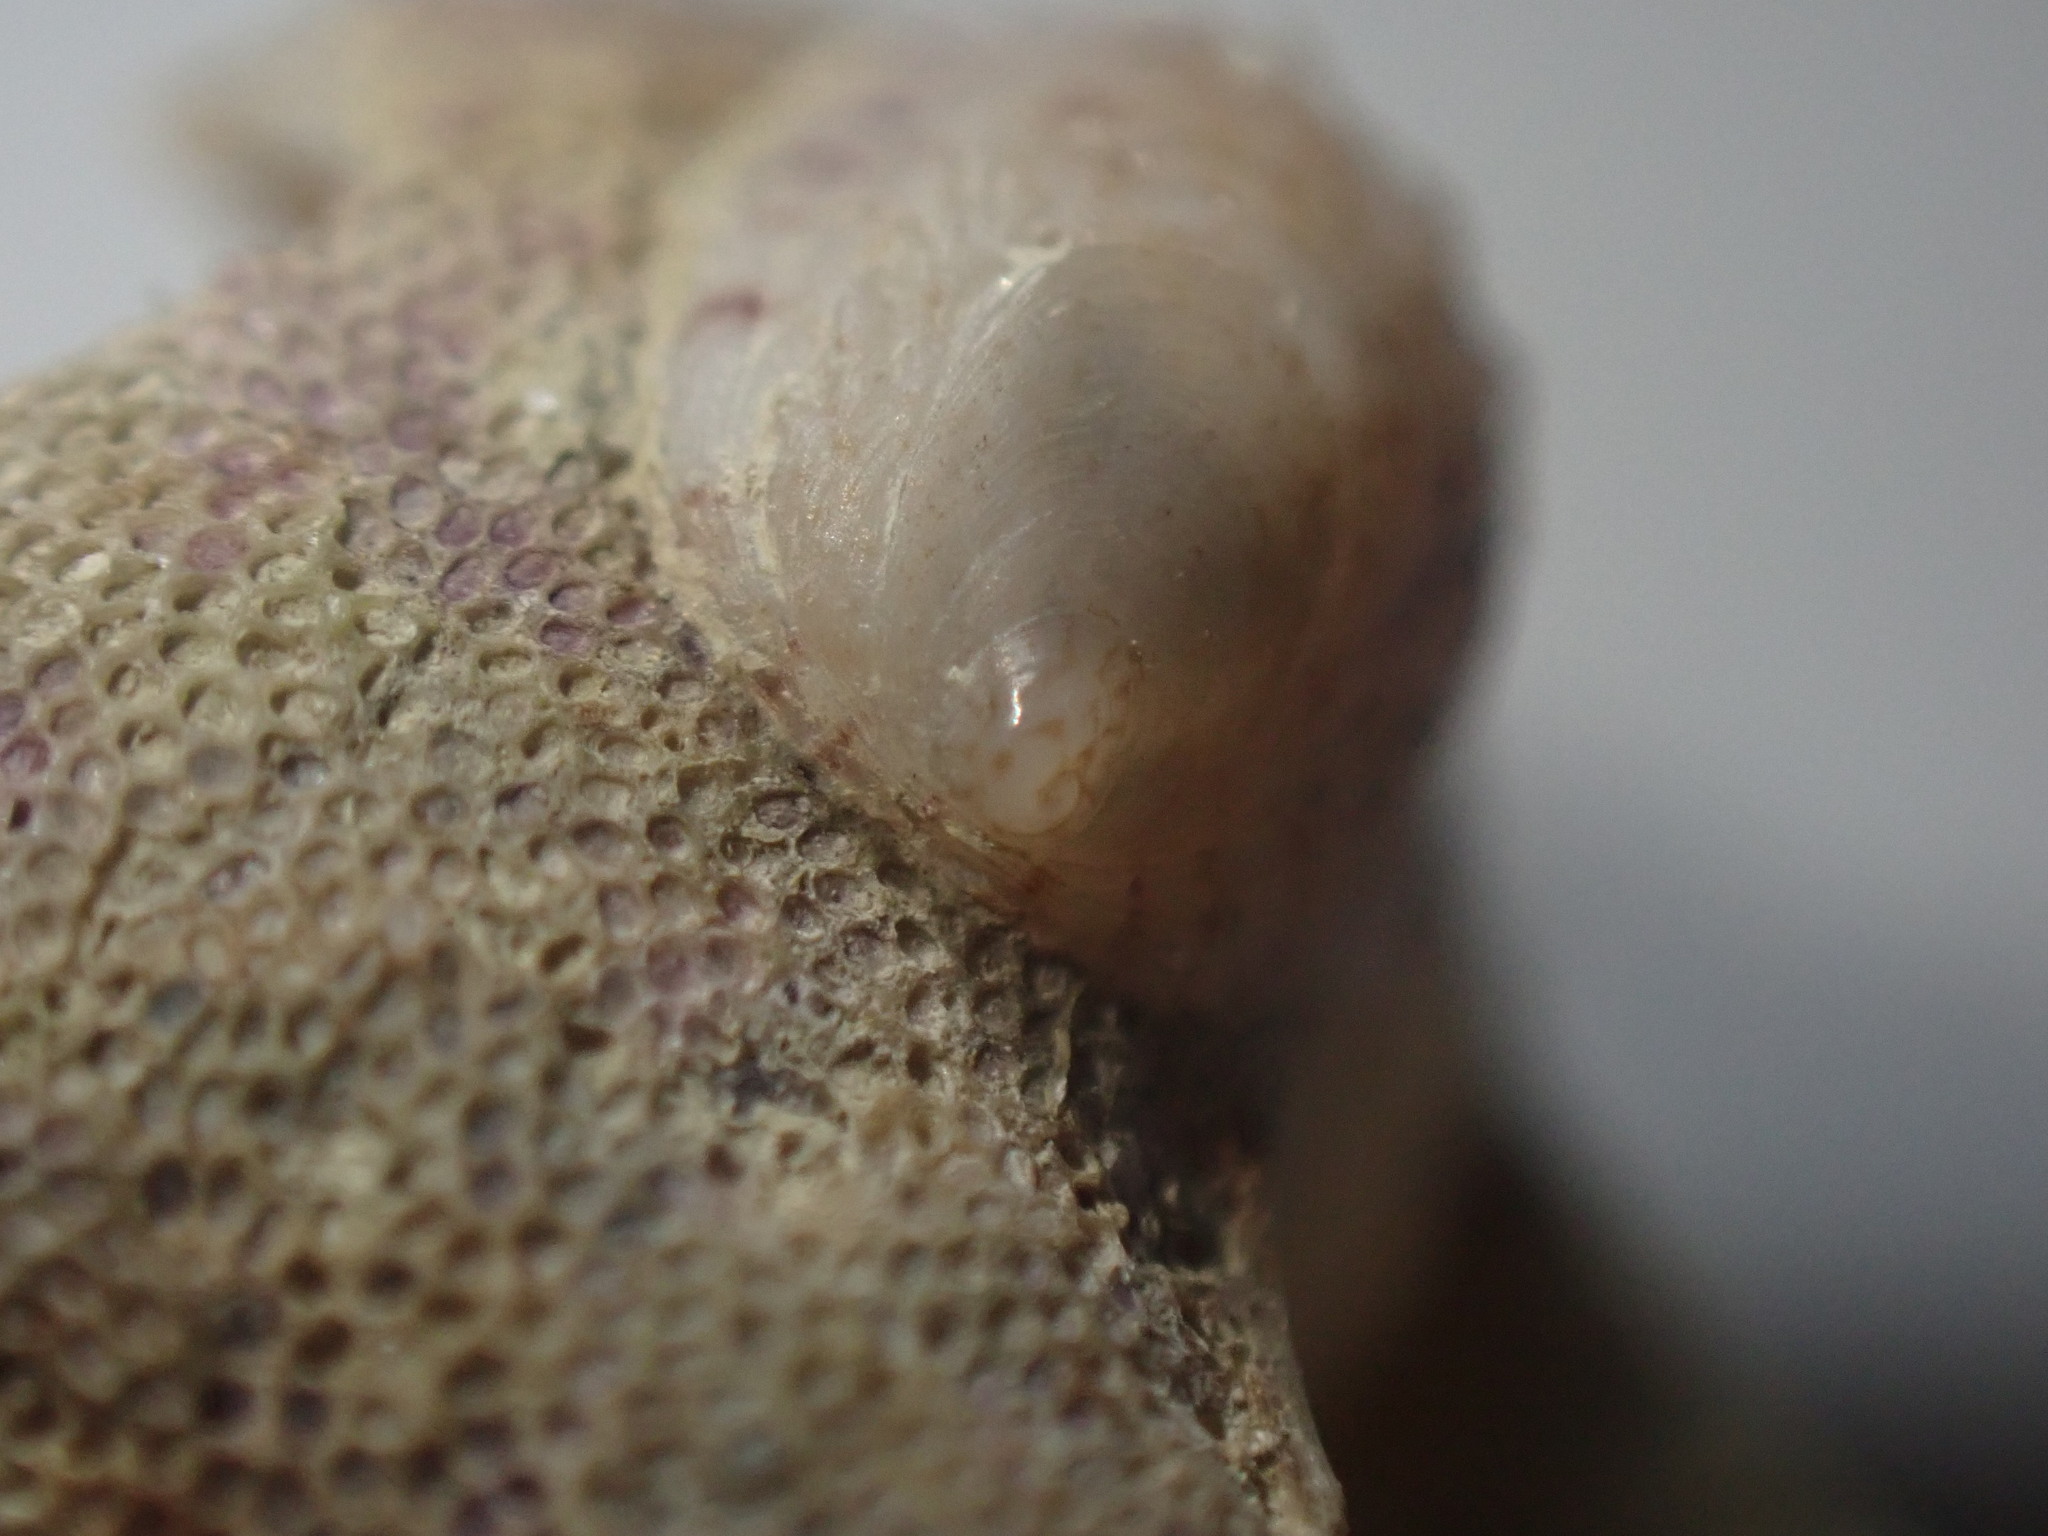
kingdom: Animalia
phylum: Mollusca
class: Gastropoda
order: Littorinimorpha
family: Calyptraeidae
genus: Maoricrypta
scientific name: Maoricrypta costata
